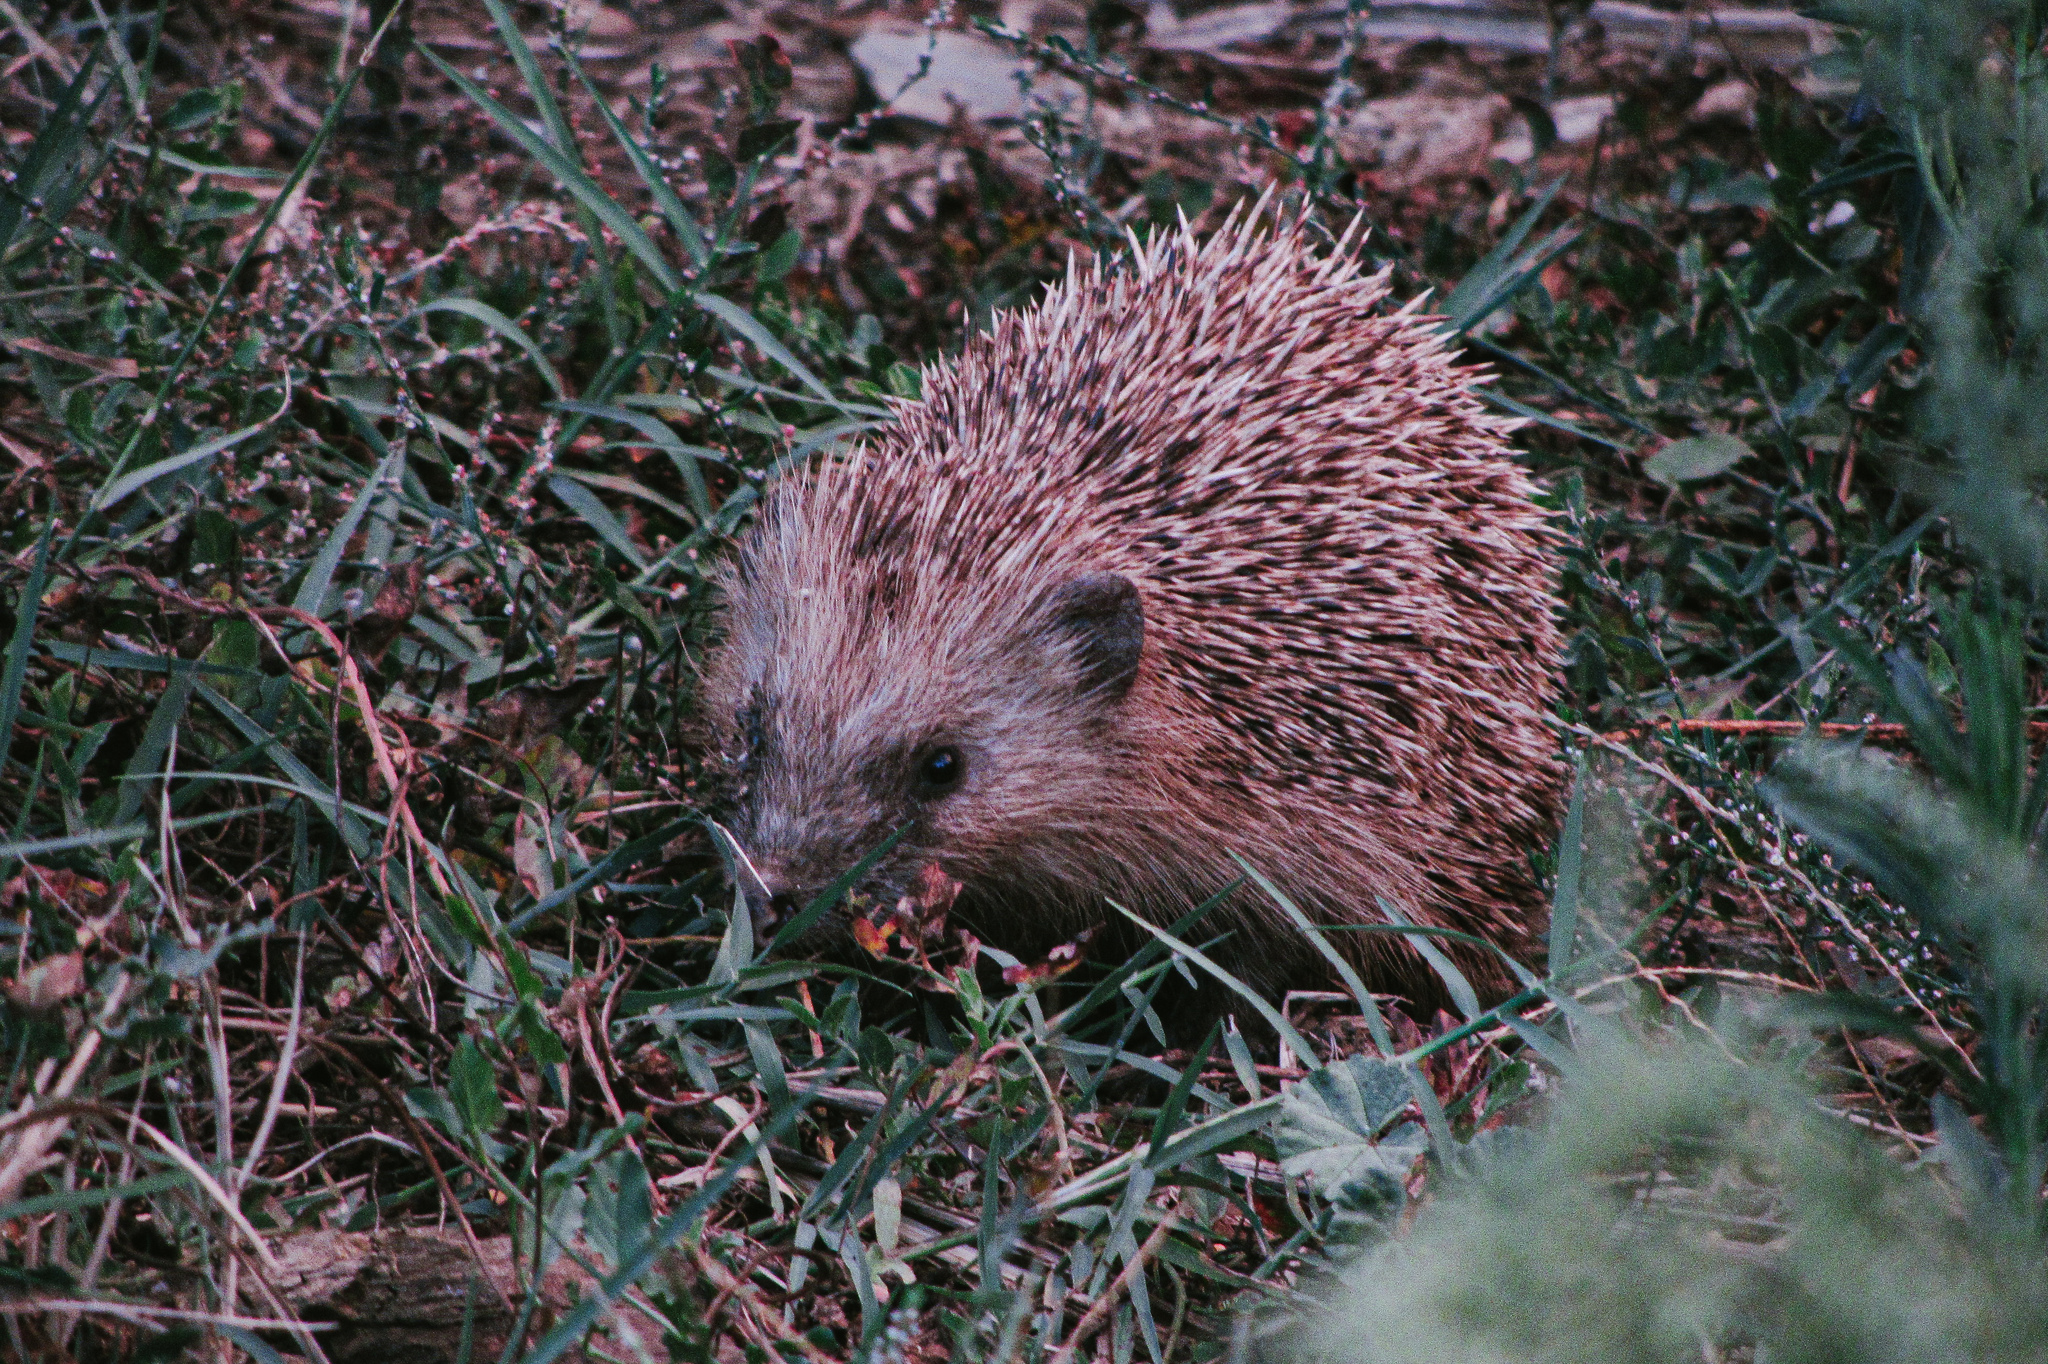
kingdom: Animalia
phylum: Chordata
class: Mammalia
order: Erinaceomorpha
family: Erinaceidae
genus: Erinaceus
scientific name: Erinaceus europaeus
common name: West european hedgehog
